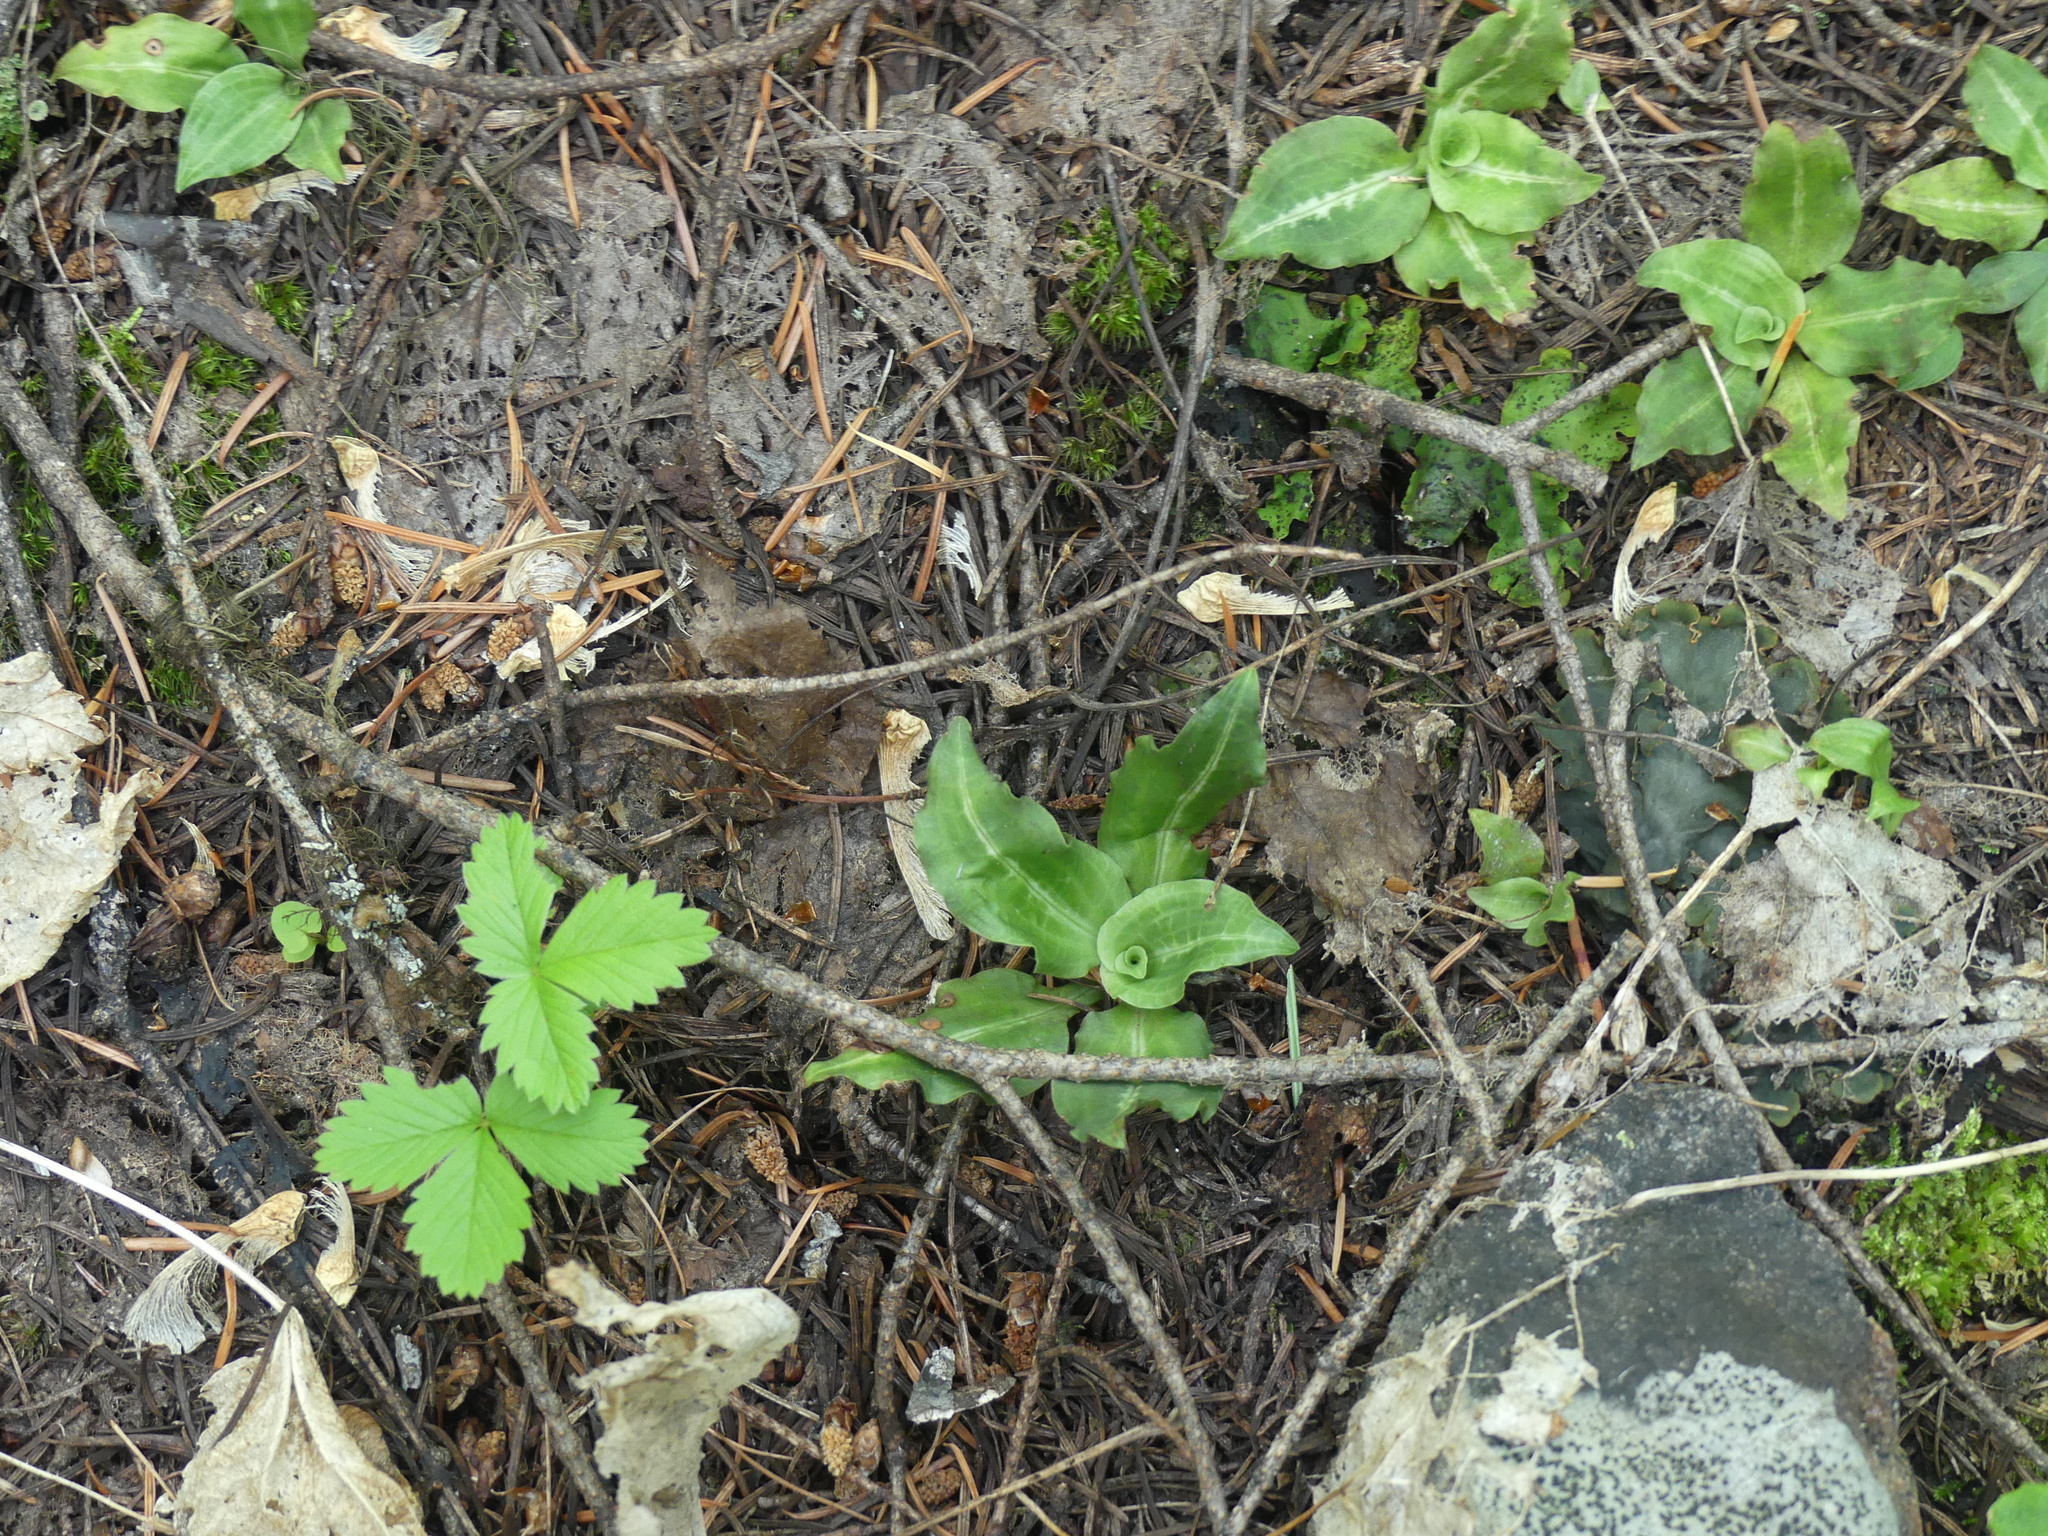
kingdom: Plantae
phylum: Tracheophyta
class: Liliopsida
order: Asparagales
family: Orchidaceae
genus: Goodyera
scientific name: Goodyera oblongifolia
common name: Giant rattlesnake-plantain
